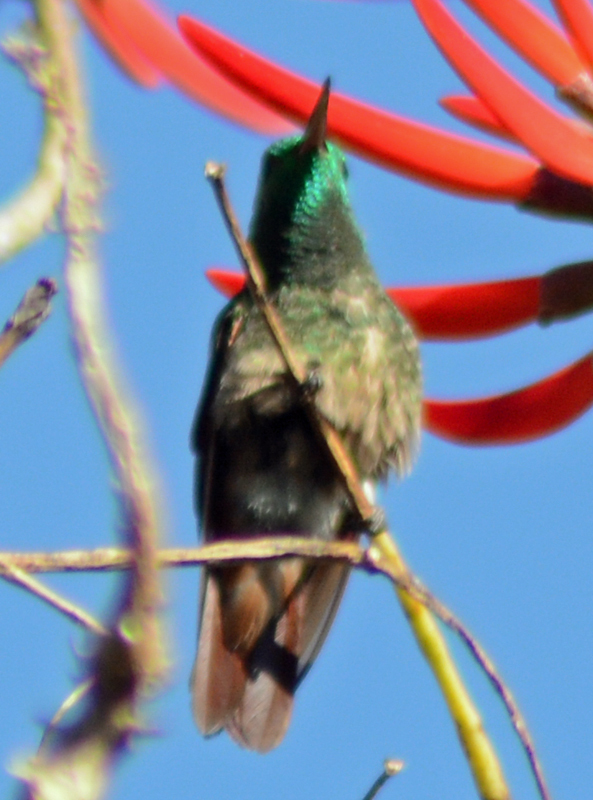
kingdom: Animalia
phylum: Chordata
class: Aves
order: Apodiformes
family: Trochilidae
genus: Saucerottia
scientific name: Saucerottia beryllina
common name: Berylline hummingbird
